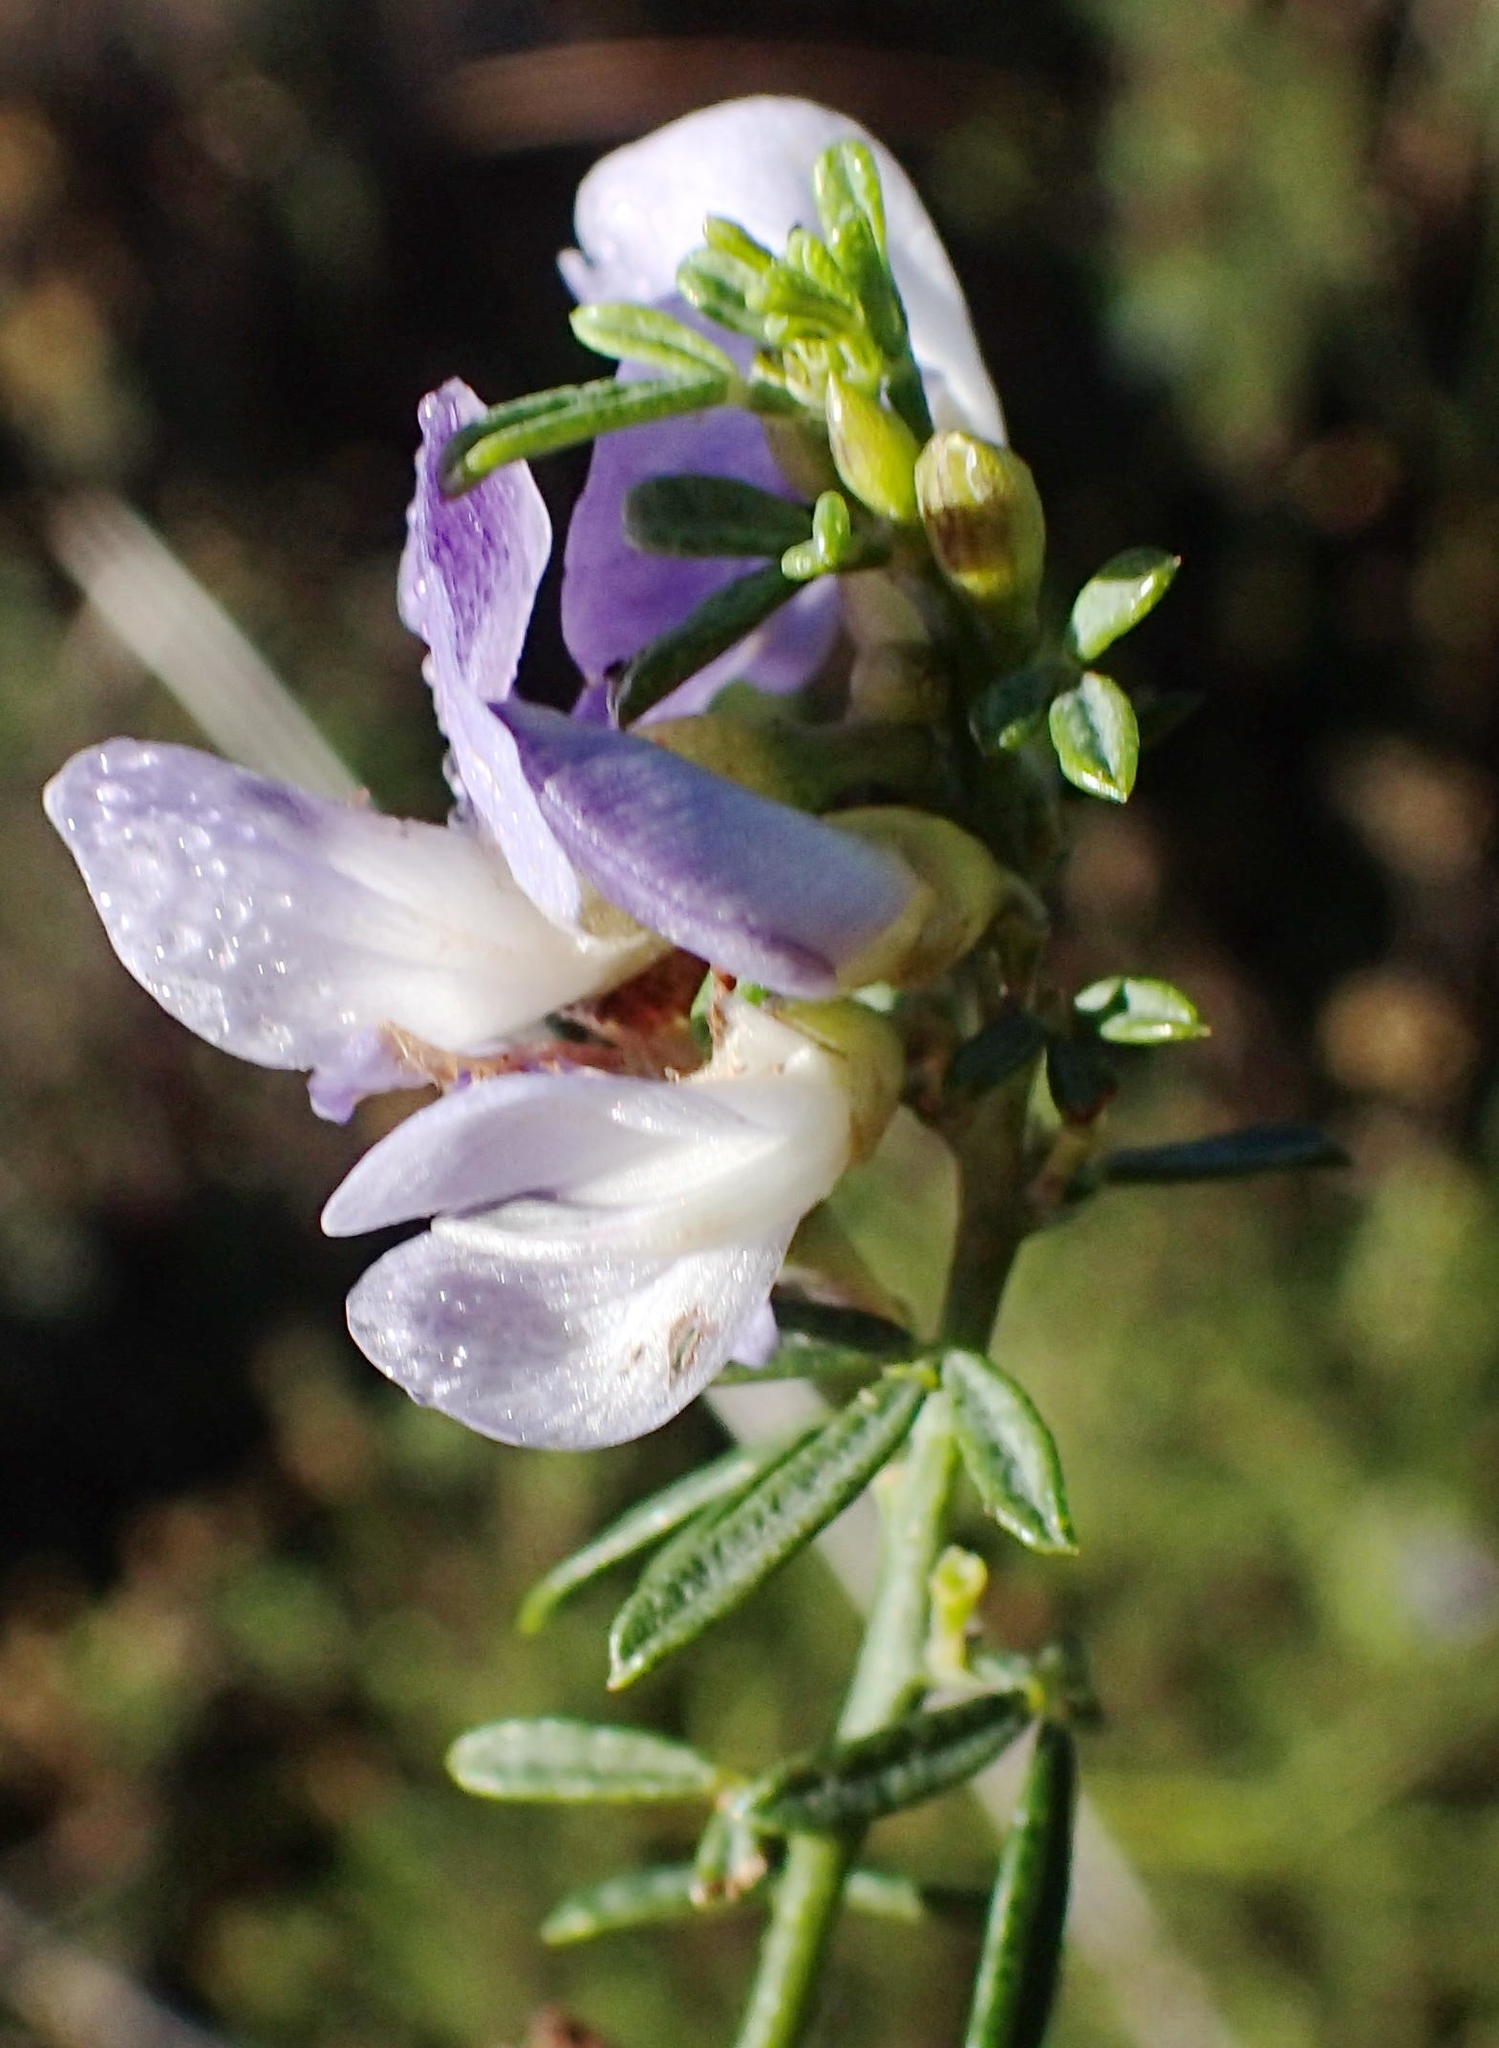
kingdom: Plantae
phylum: Tracheophyta
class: Magnoliopsida
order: Fabales
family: Fabaceae
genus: Psoralea
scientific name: Psoralea axillaris
